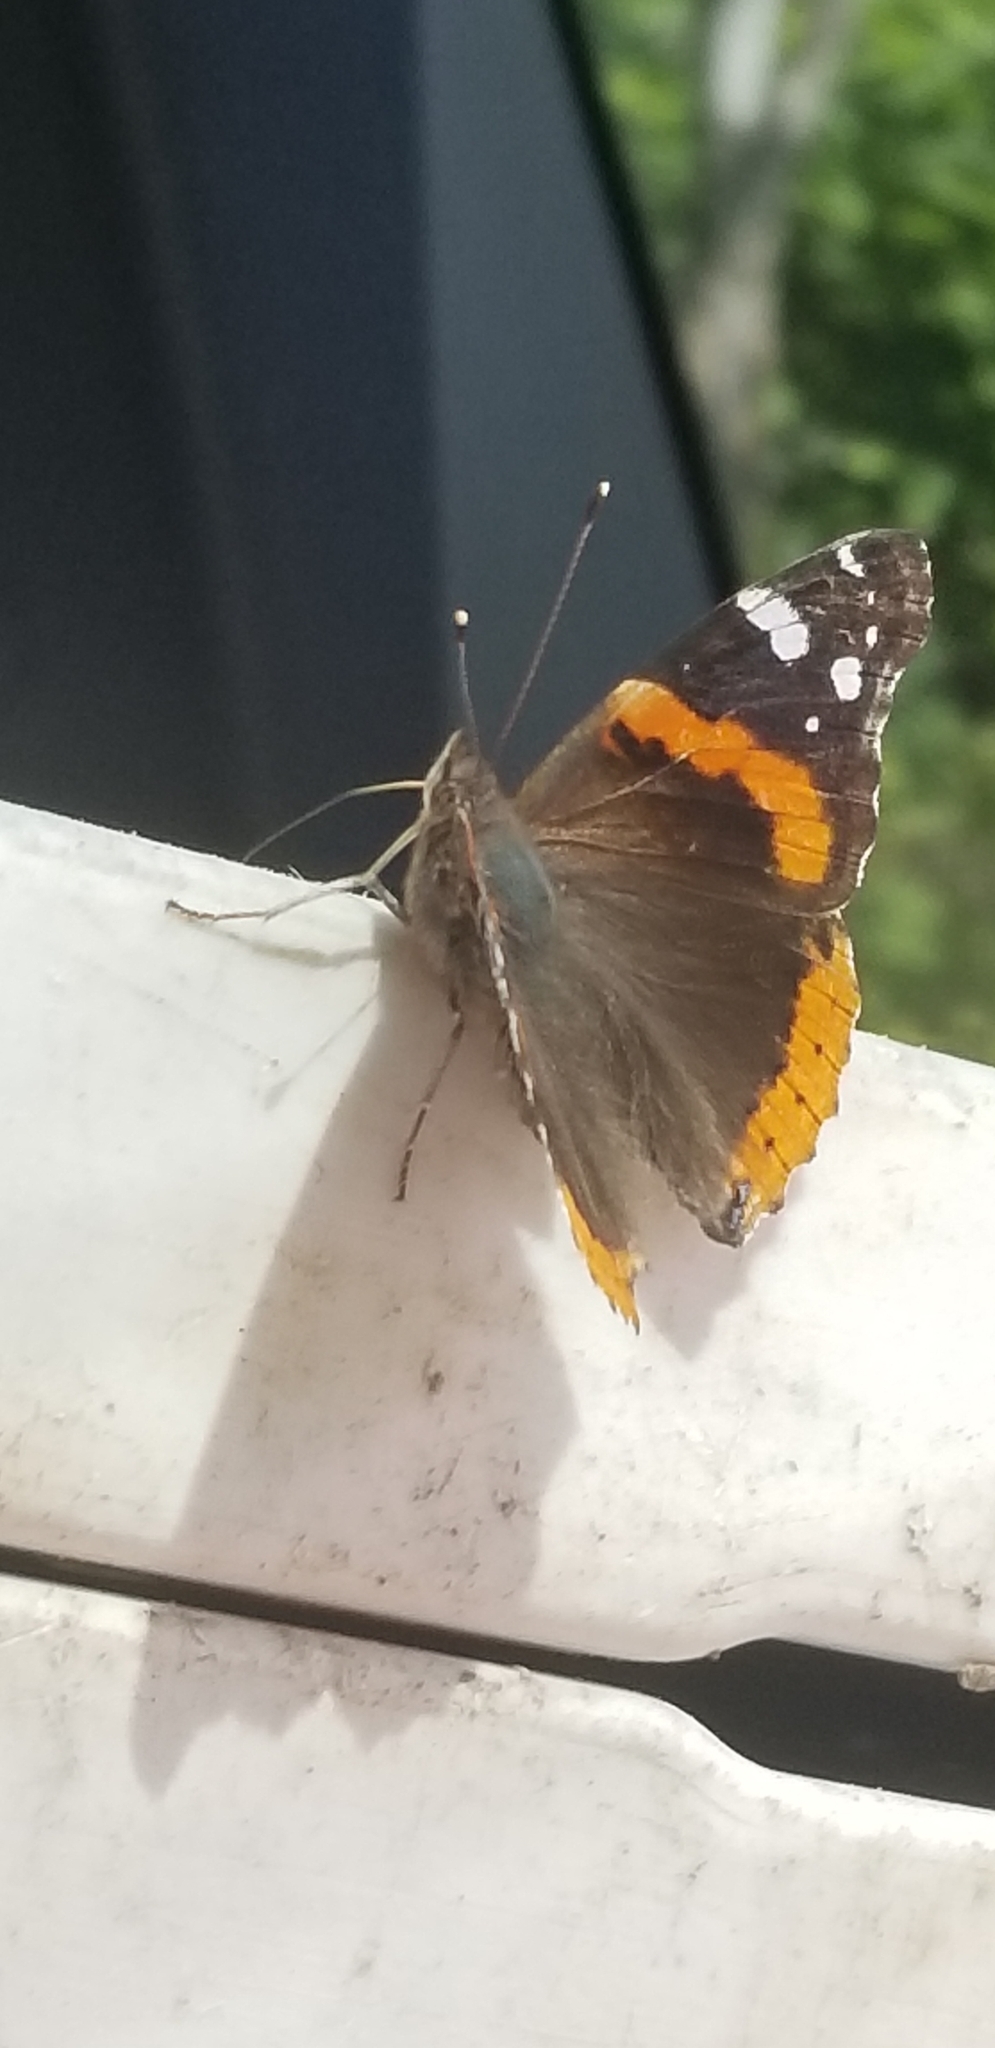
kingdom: Animalia
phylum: Arthropoda
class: Insecta
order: Lepidoptera
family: Nymphalidae
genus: Vanessa
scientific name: Vanessa atalanta
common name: Red admiral
